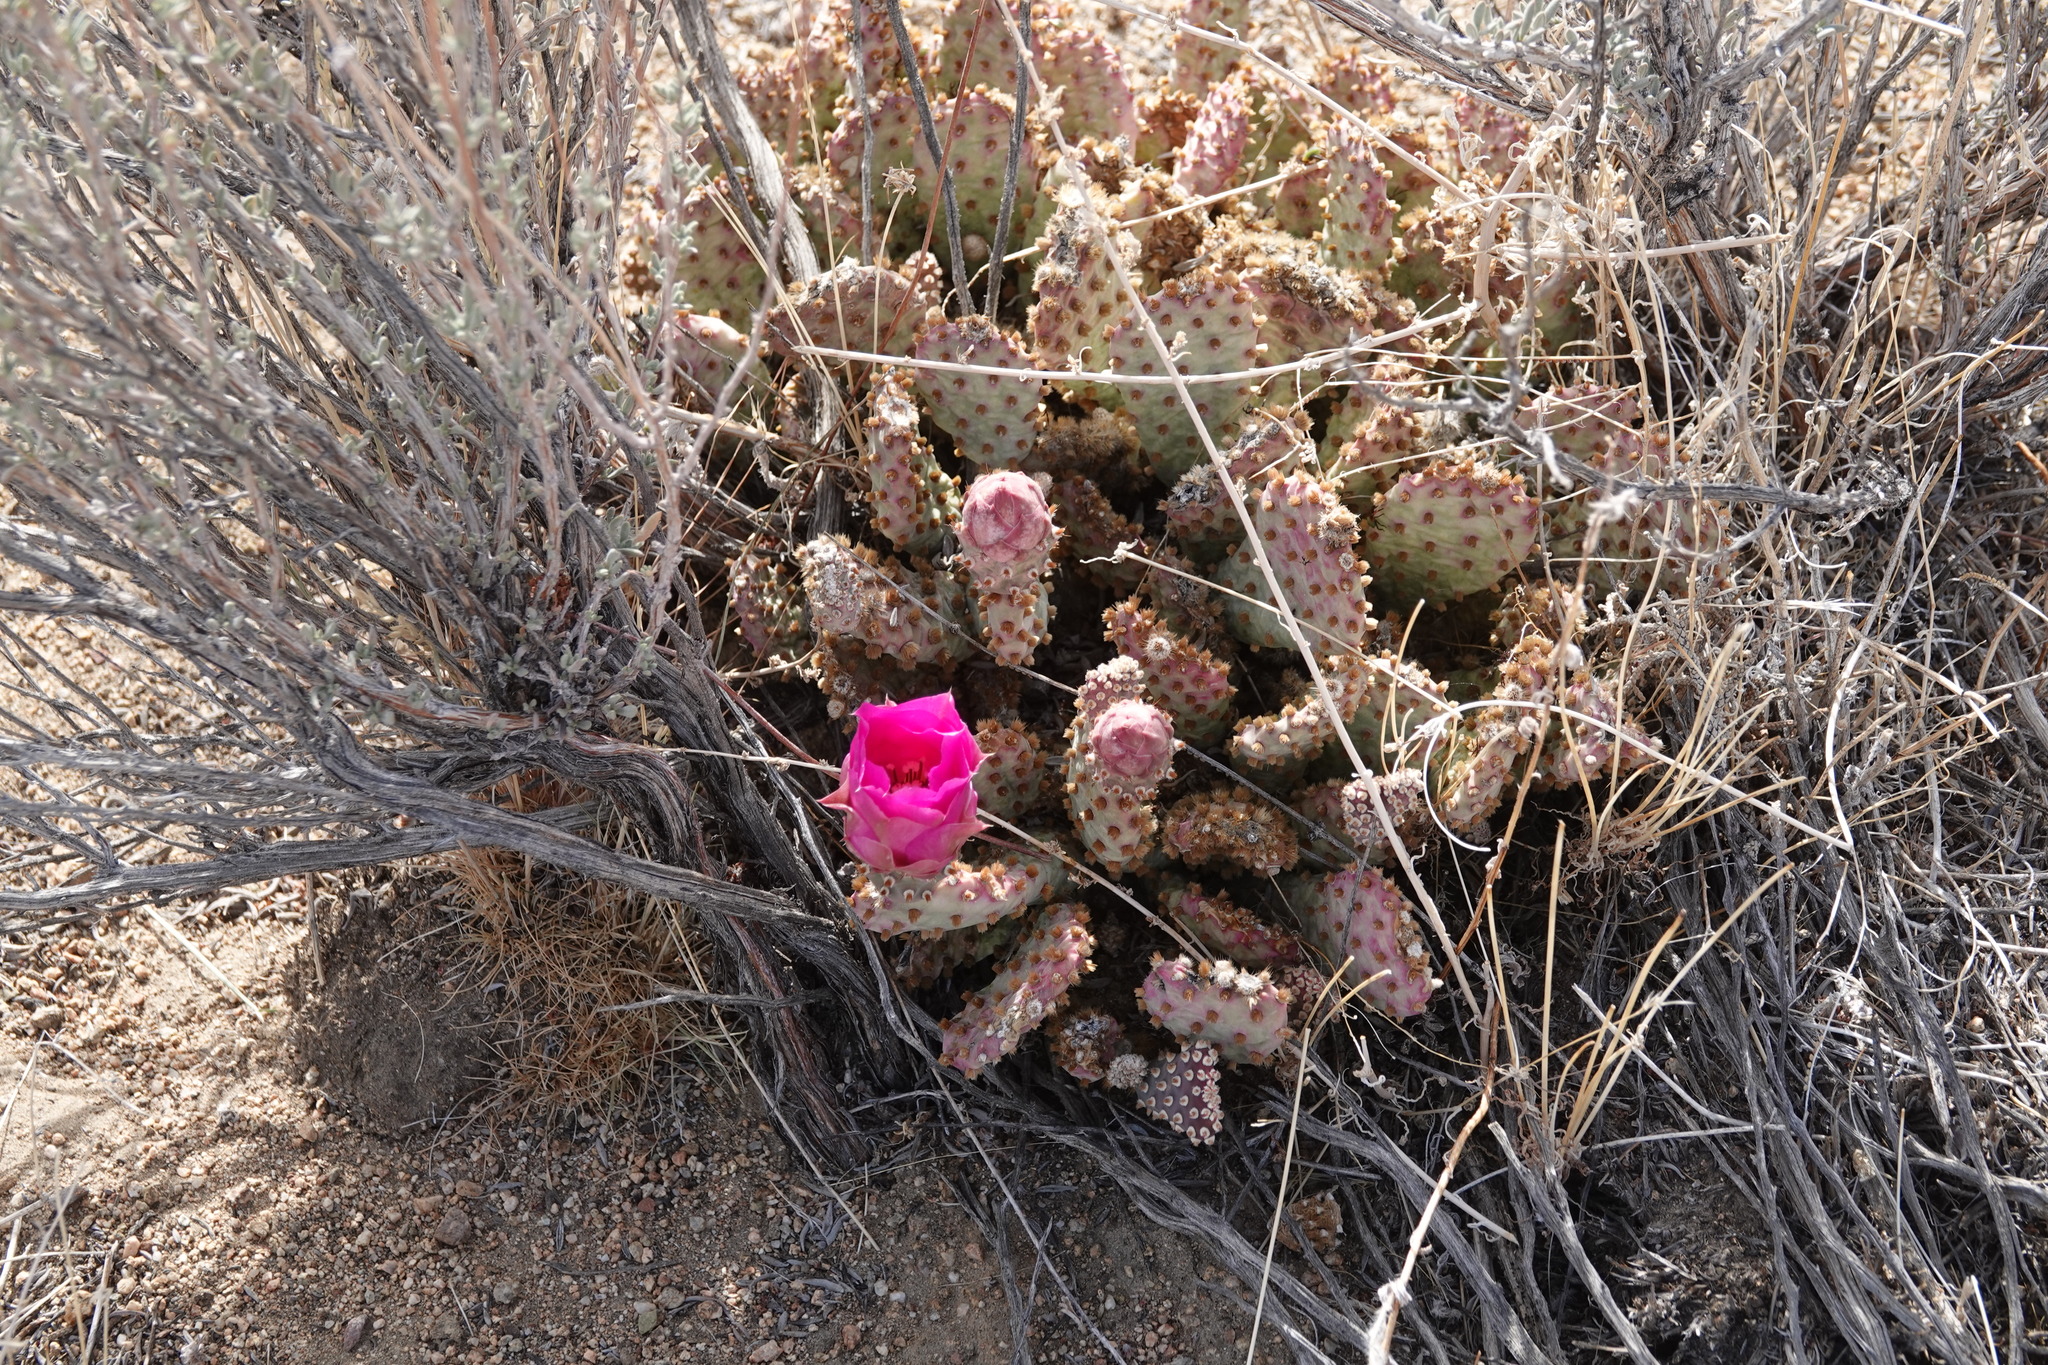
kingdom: Plantae
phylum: Tracheophyta
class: Magnoliopsida
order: Caryophyllales
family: Cactaceae
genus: Opuntia
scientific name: Opuntia basilaris
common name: Beavertail prickly-pear
